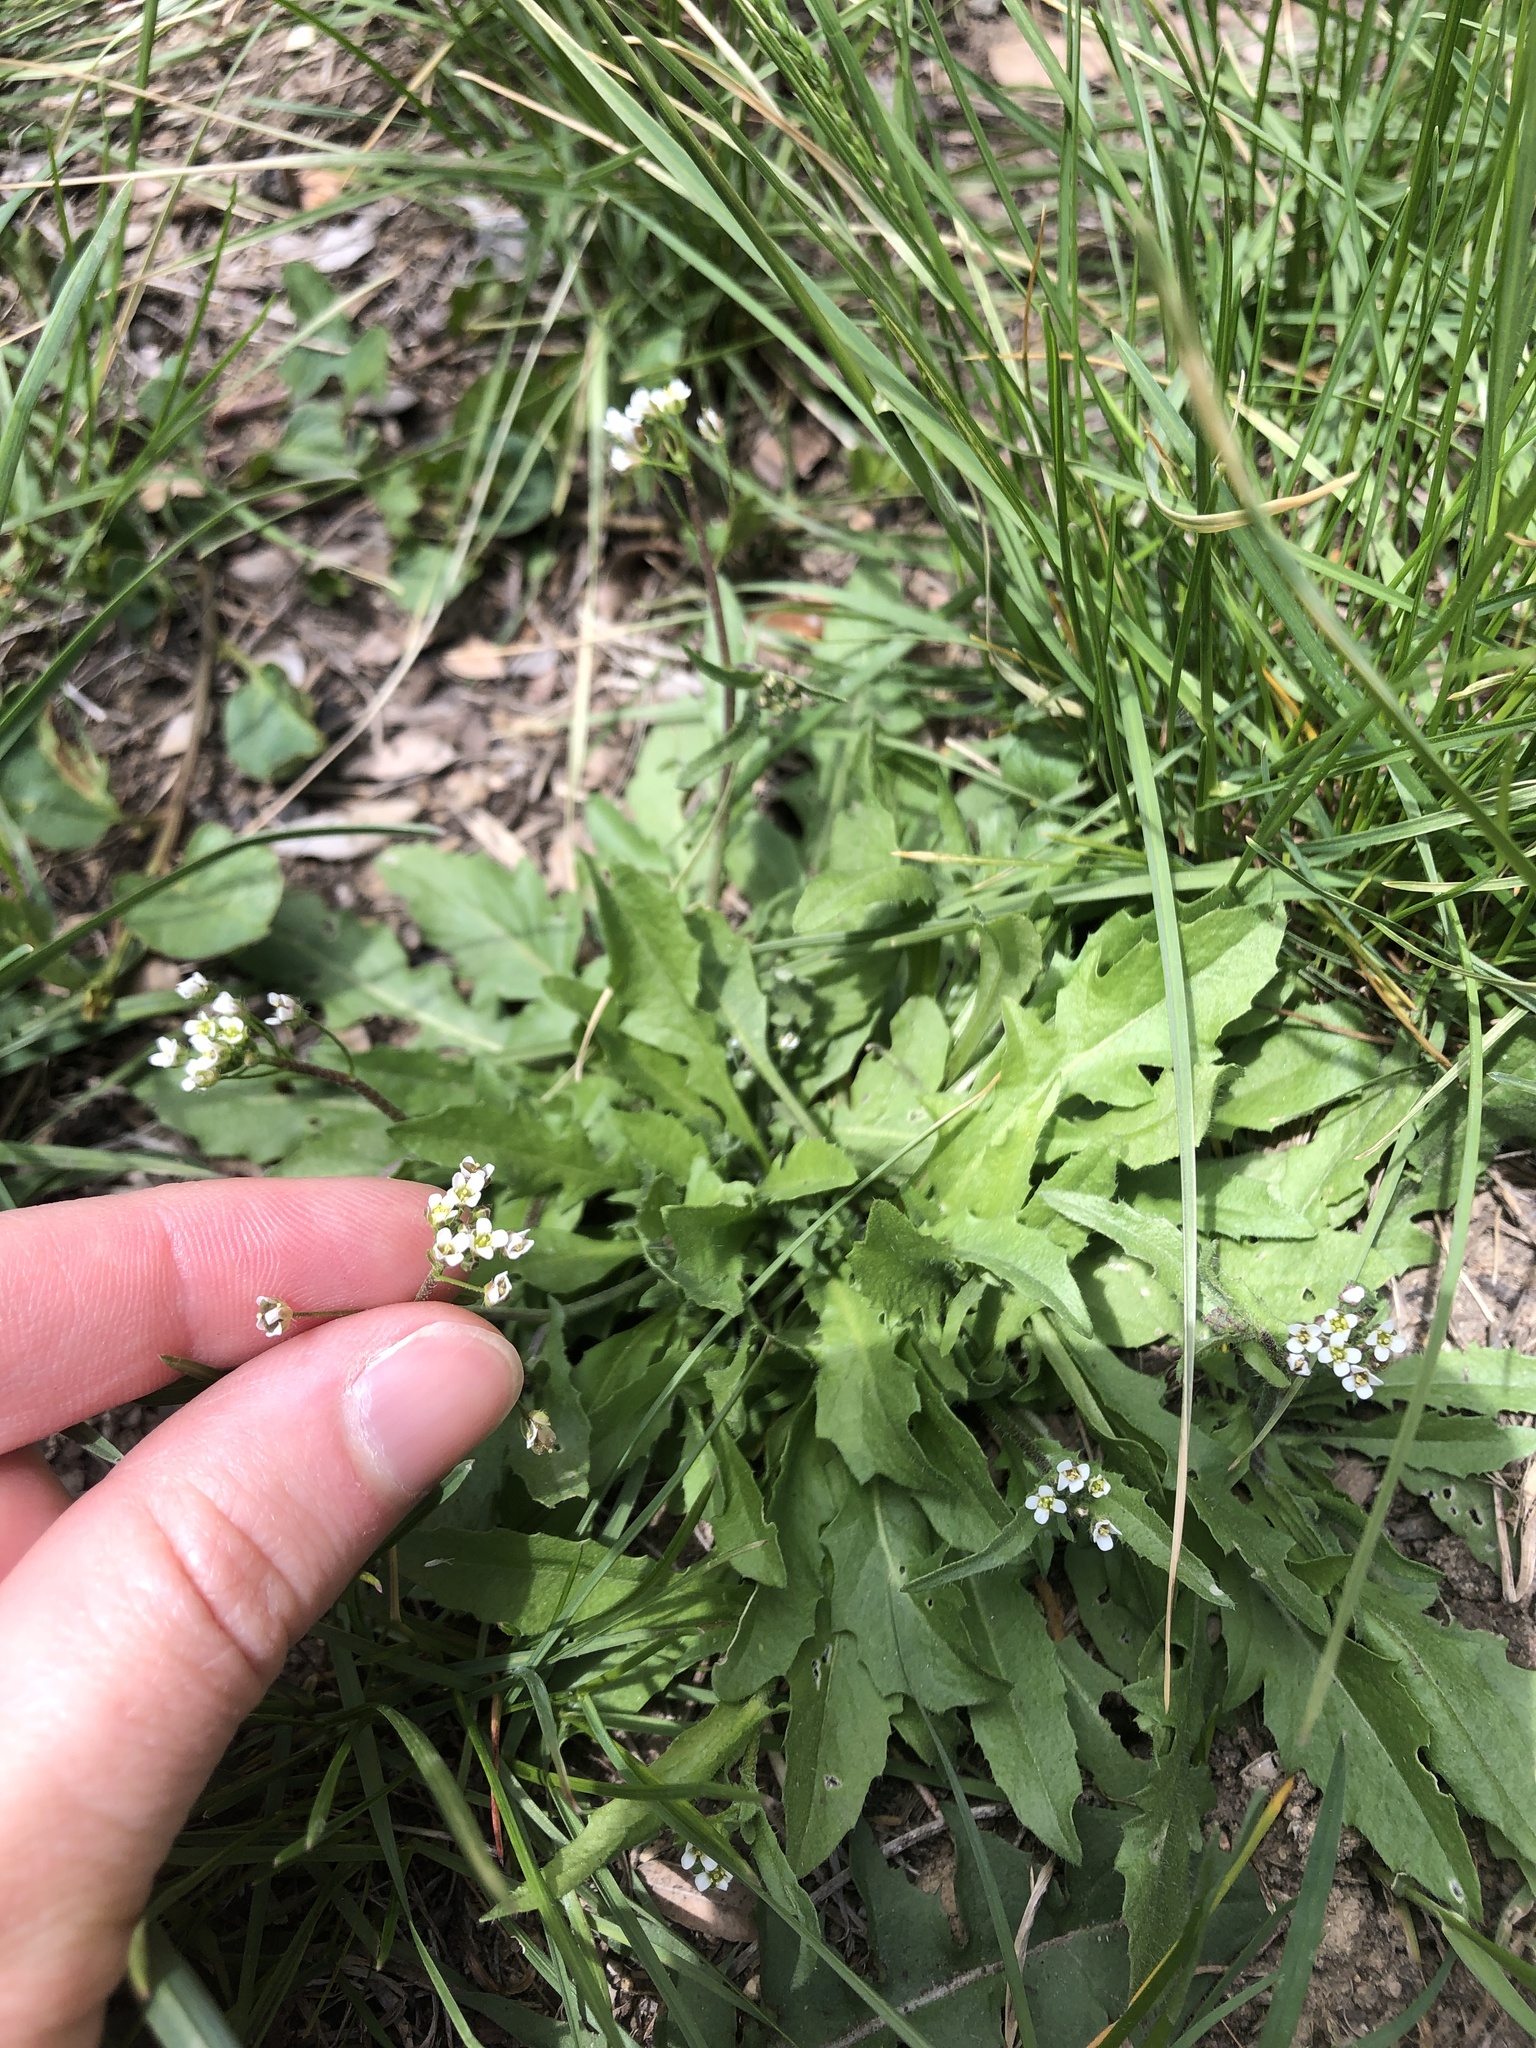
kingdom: Plantae
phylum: Tracheophyta
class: Magnoliopsida
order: Brassicales
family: Brassicaceae
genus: Capsella
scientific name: Capsella bursa-pastoris
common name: Shepherd's purse
